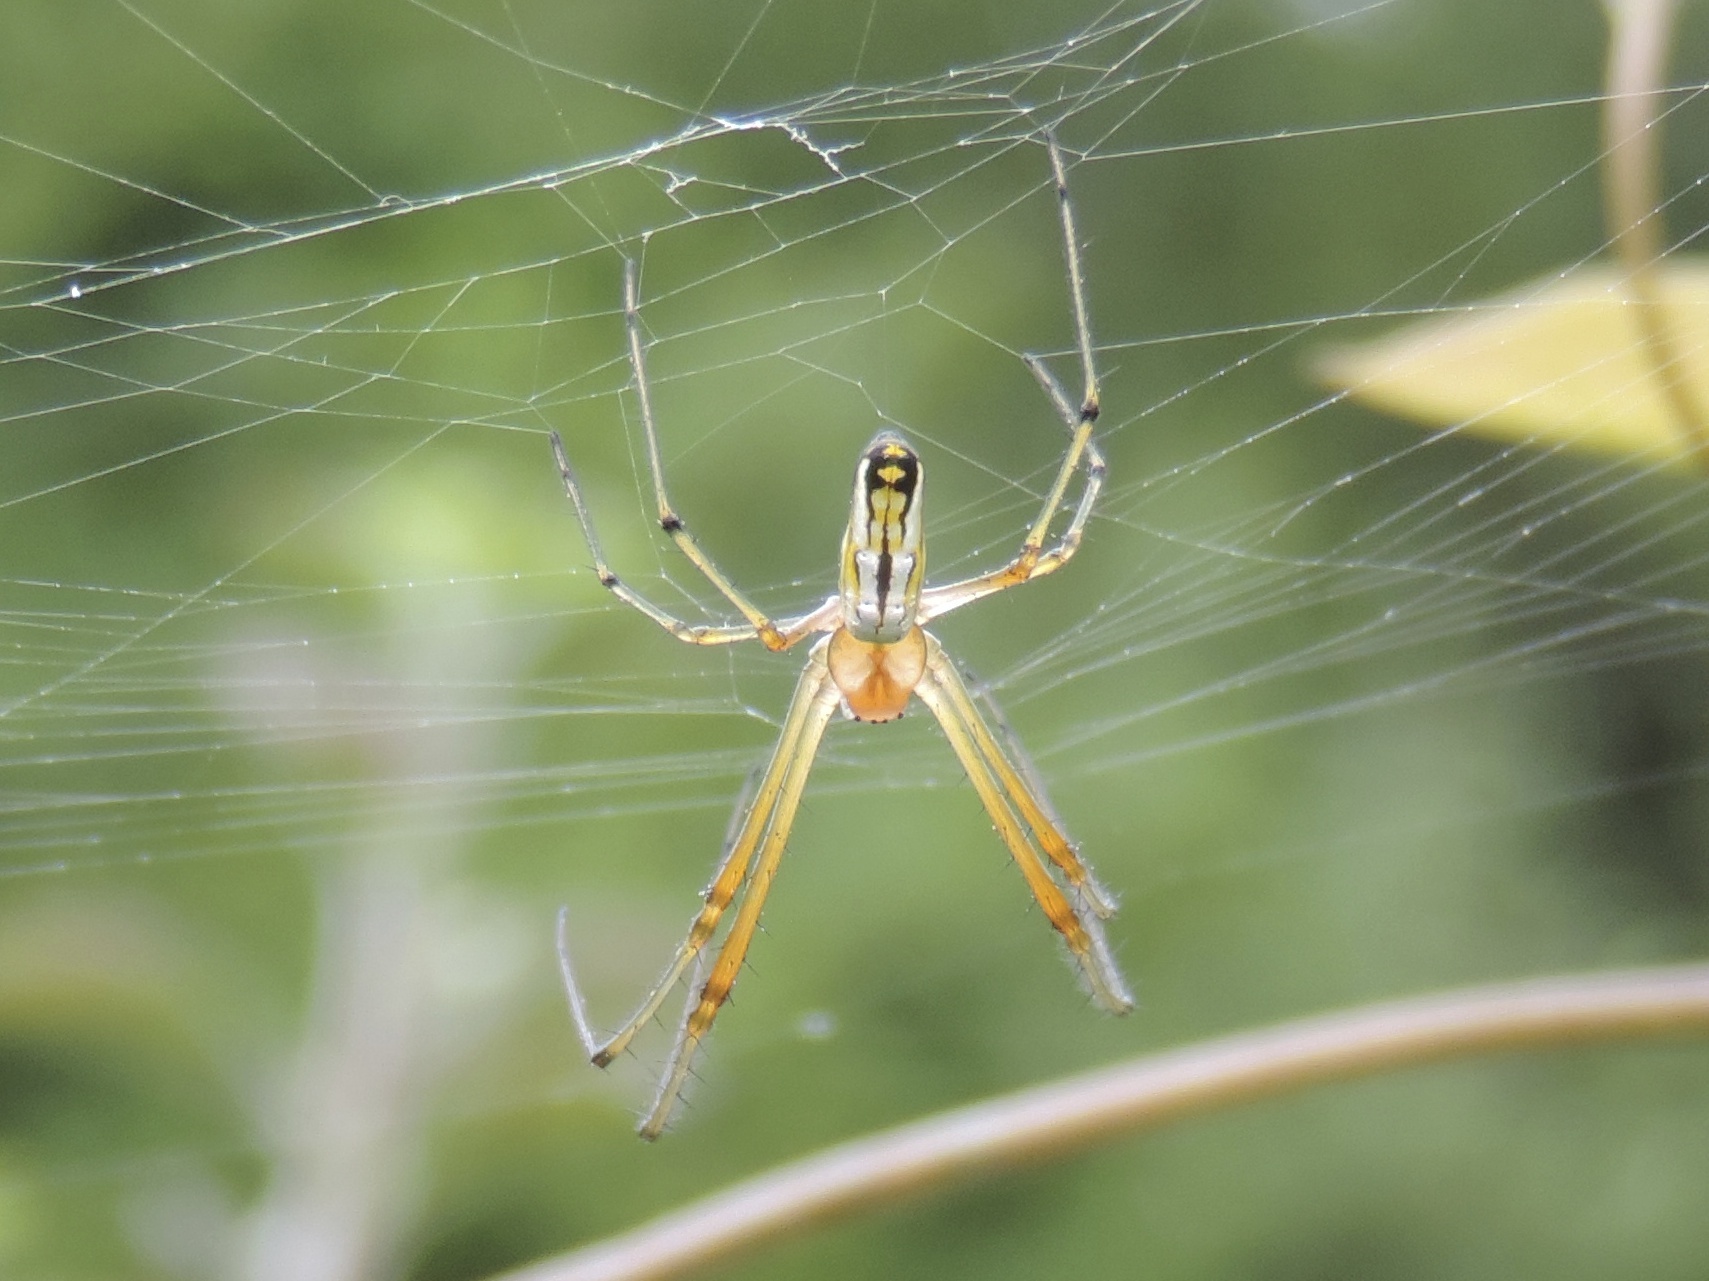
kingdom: Animalia
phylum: Arthropoda
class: Arachnida
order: Araneae
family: Tetragnathidae
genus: Leucauge
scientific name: Leucauge
